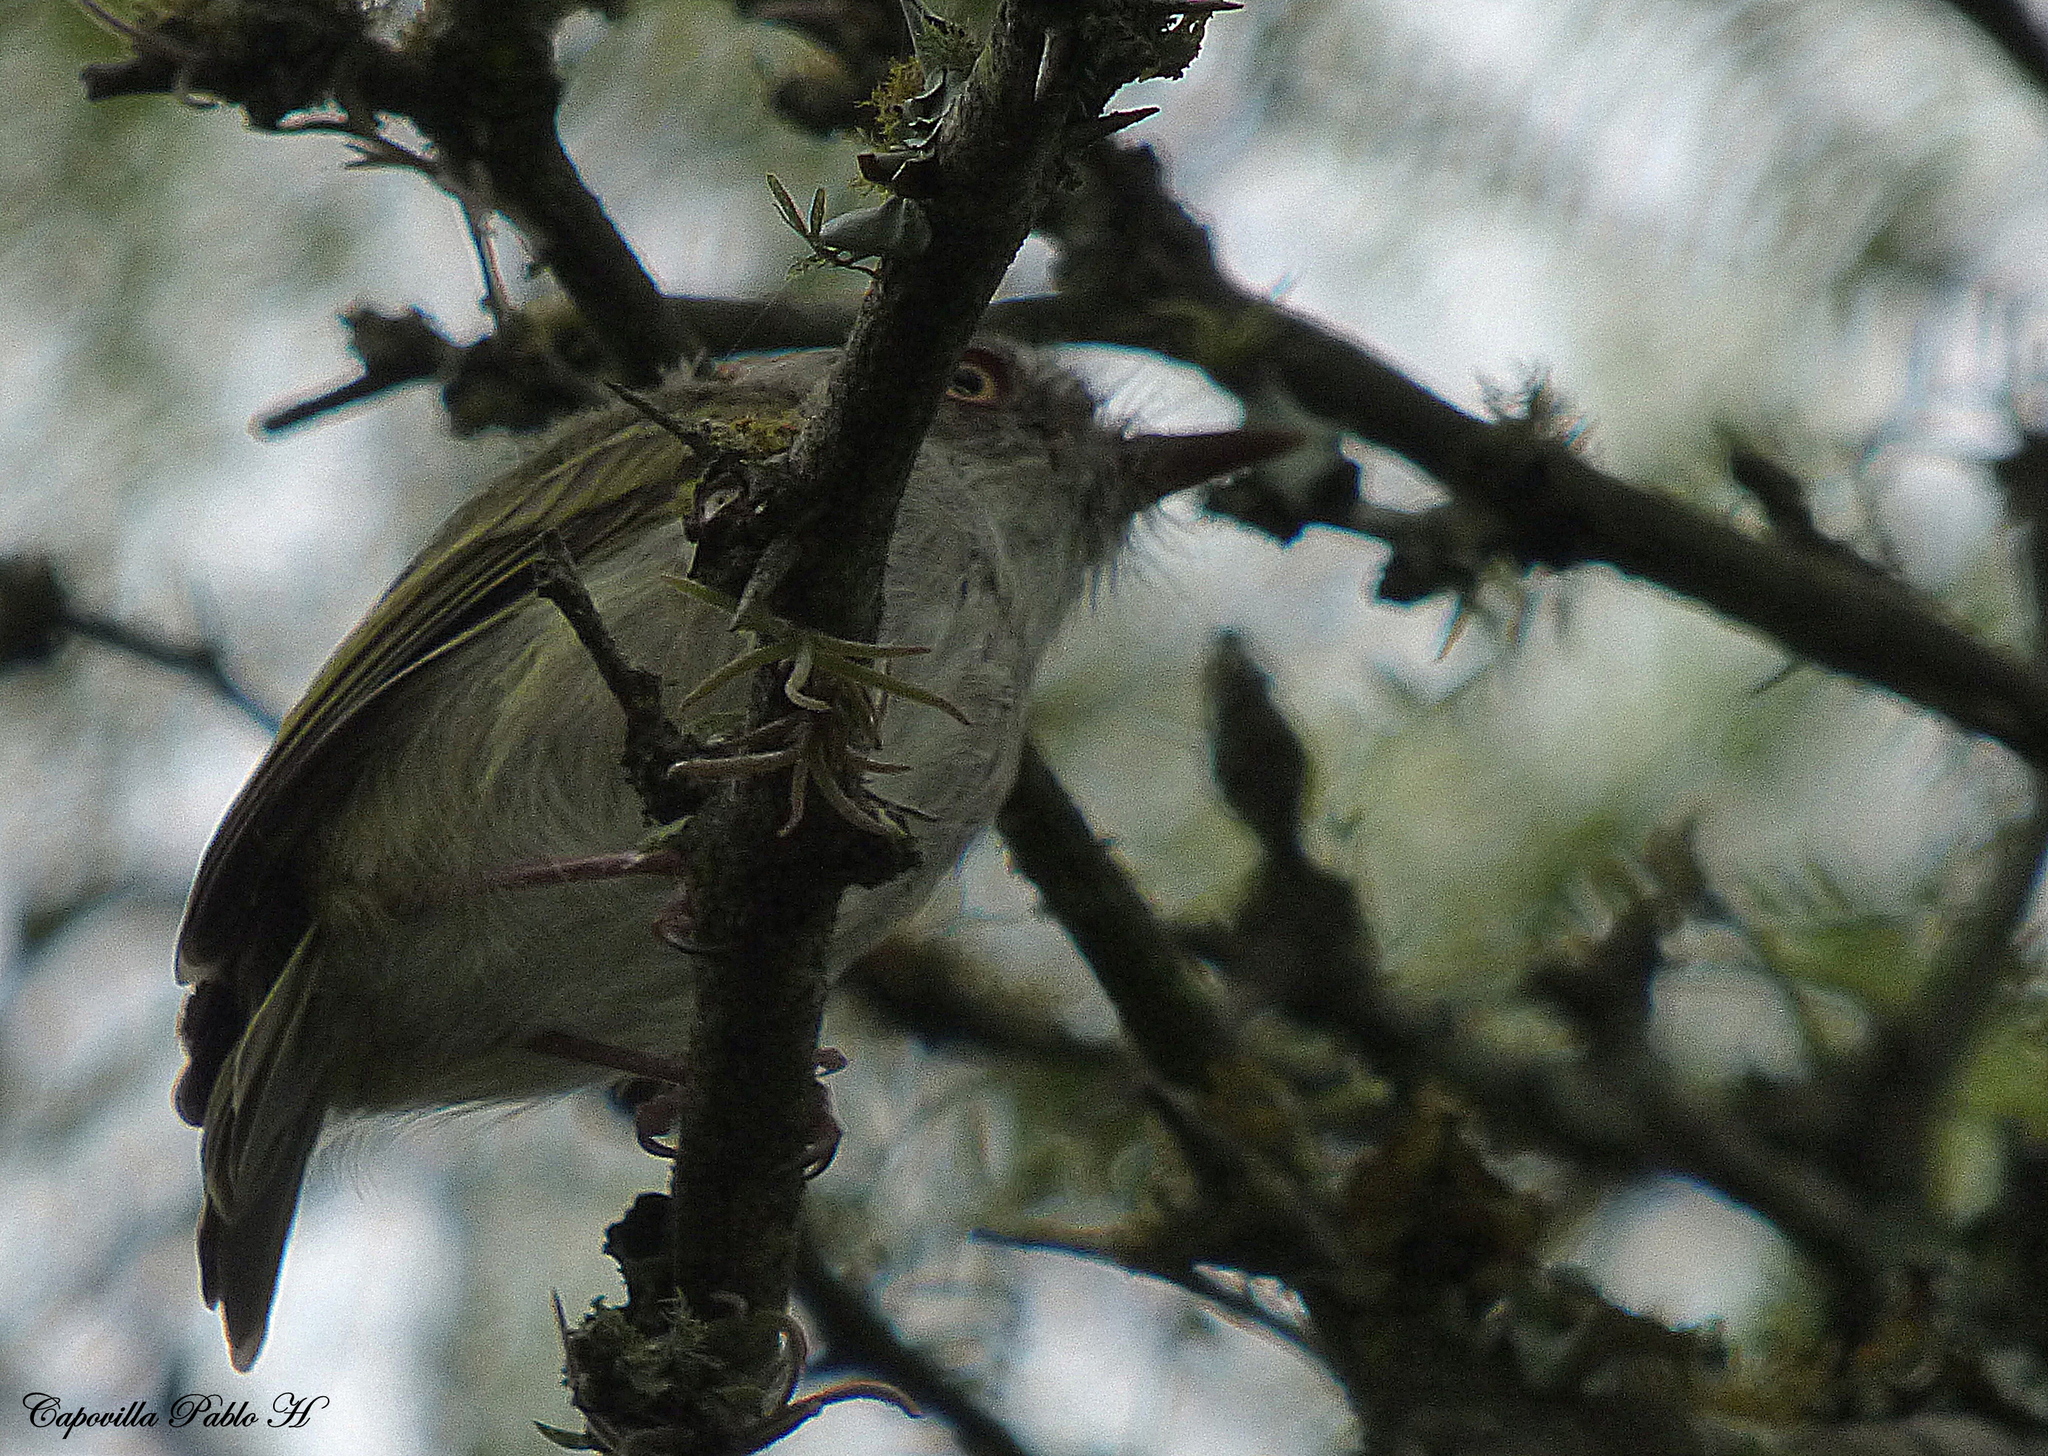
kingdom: Animalia
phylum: Chordata
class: Aves
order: Passeriformes
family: Tyrannidae
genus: Hemitriccus
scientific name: Hemitriccus margaritaceiventer
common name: Pearly-vented tody-tyrant
